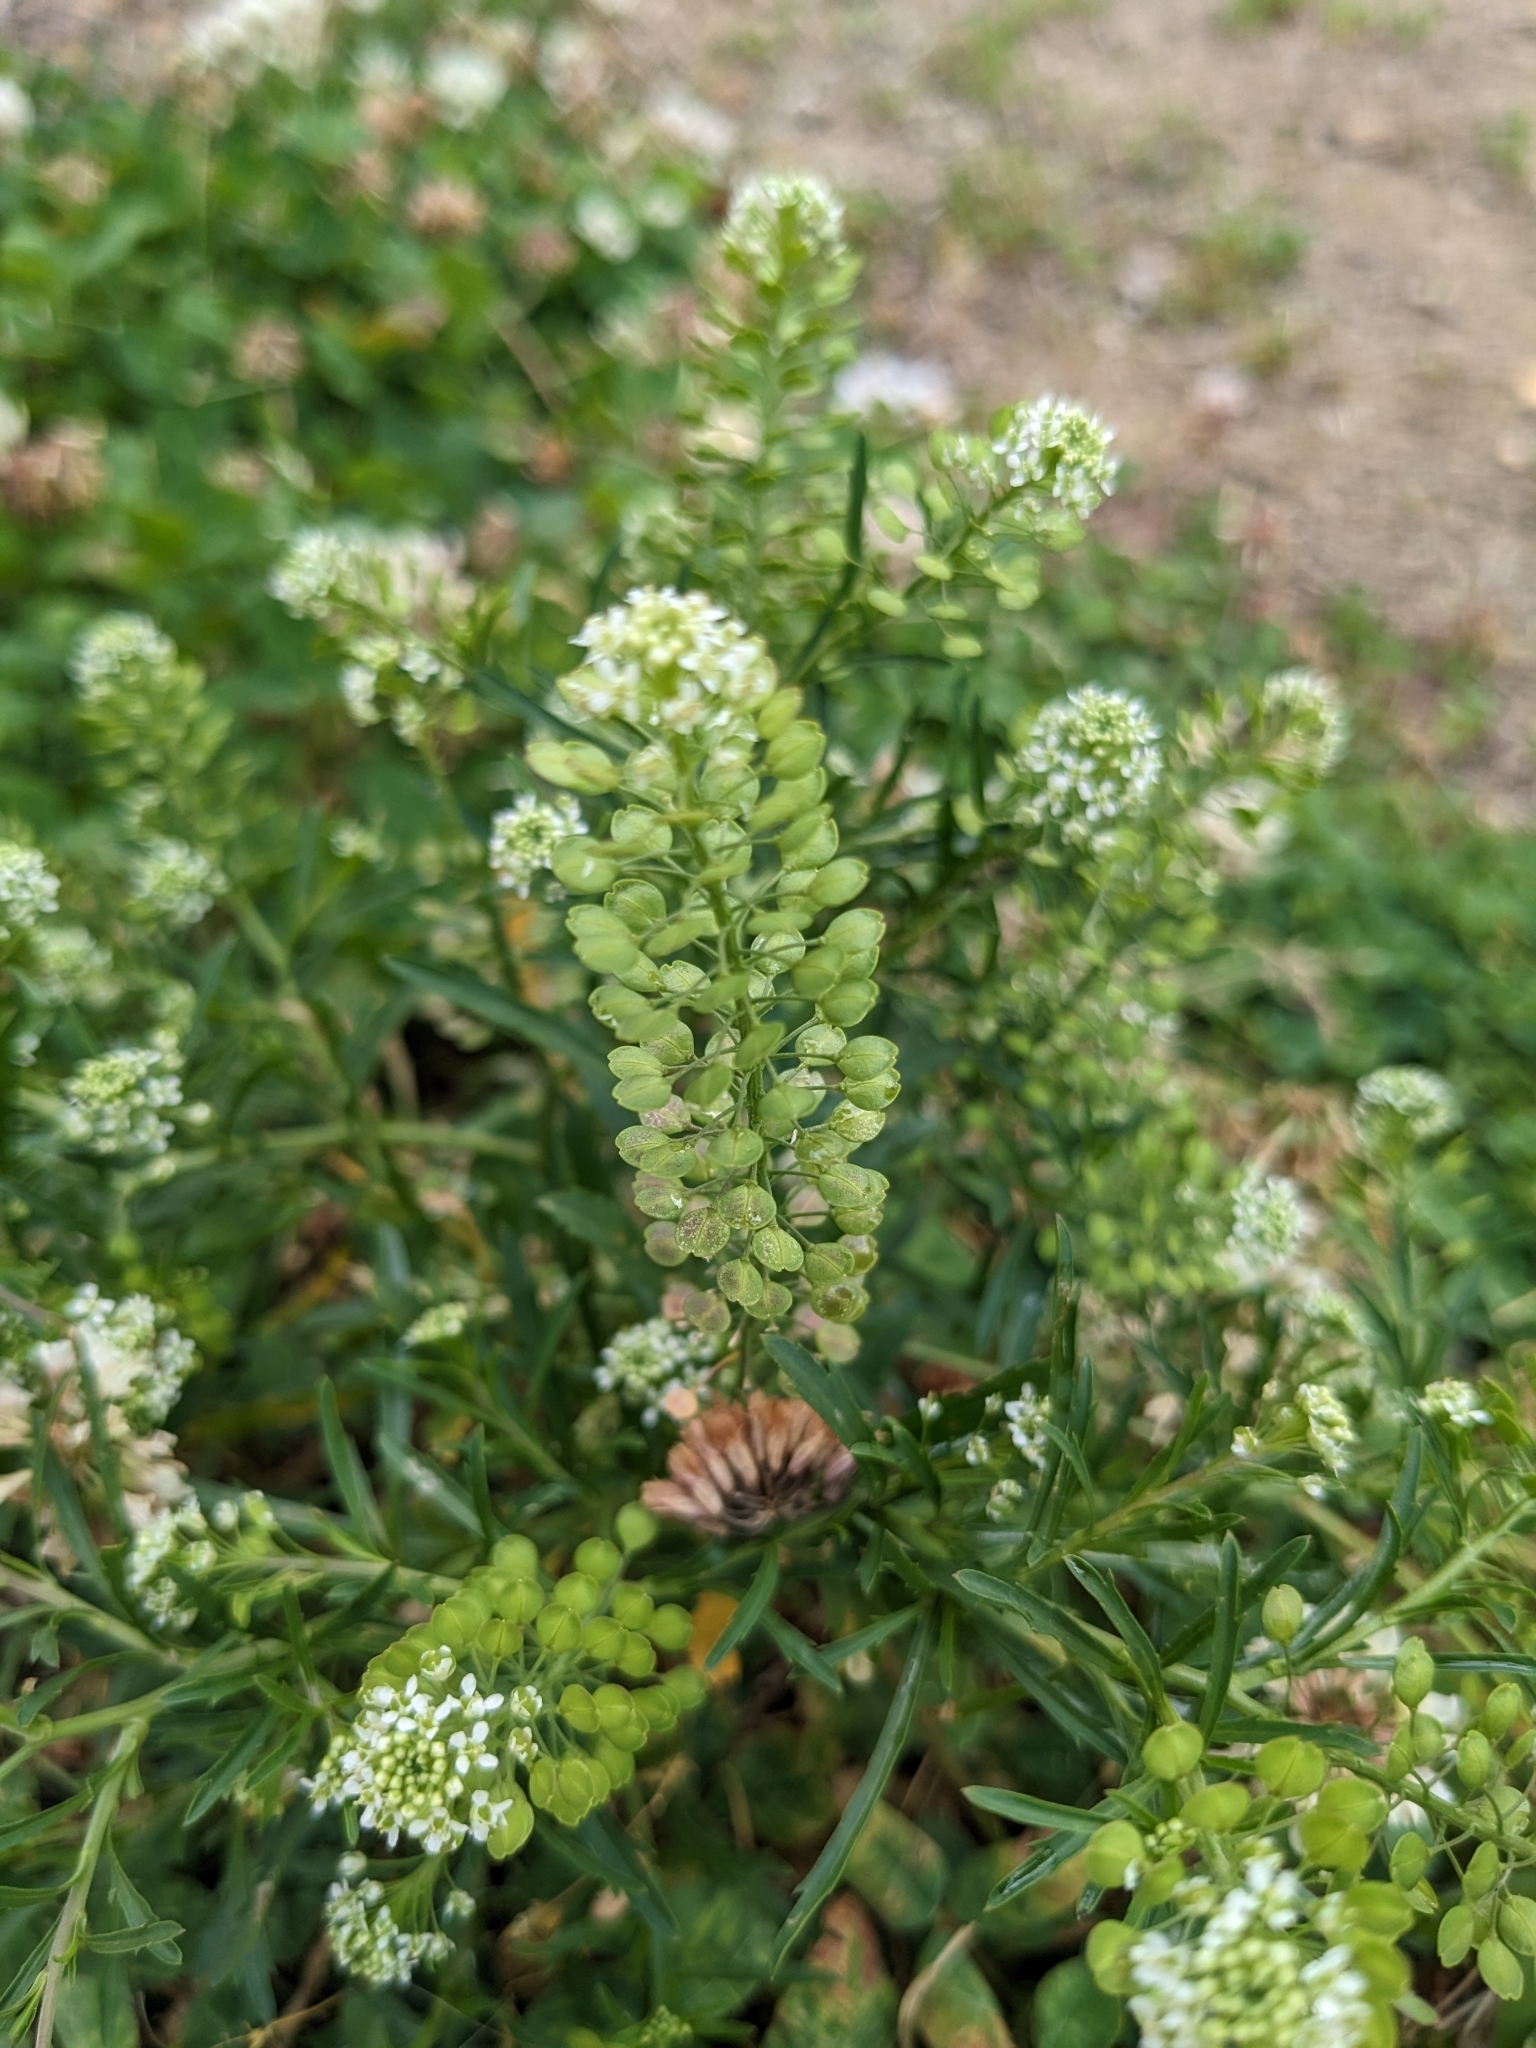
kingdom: Plantae
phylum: Tracheophyta
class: Magnoliopsida
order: Brassicales
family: Brassicaceae
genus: Lepidium
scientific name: Lepidium virginicum
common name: Least pepperwort
